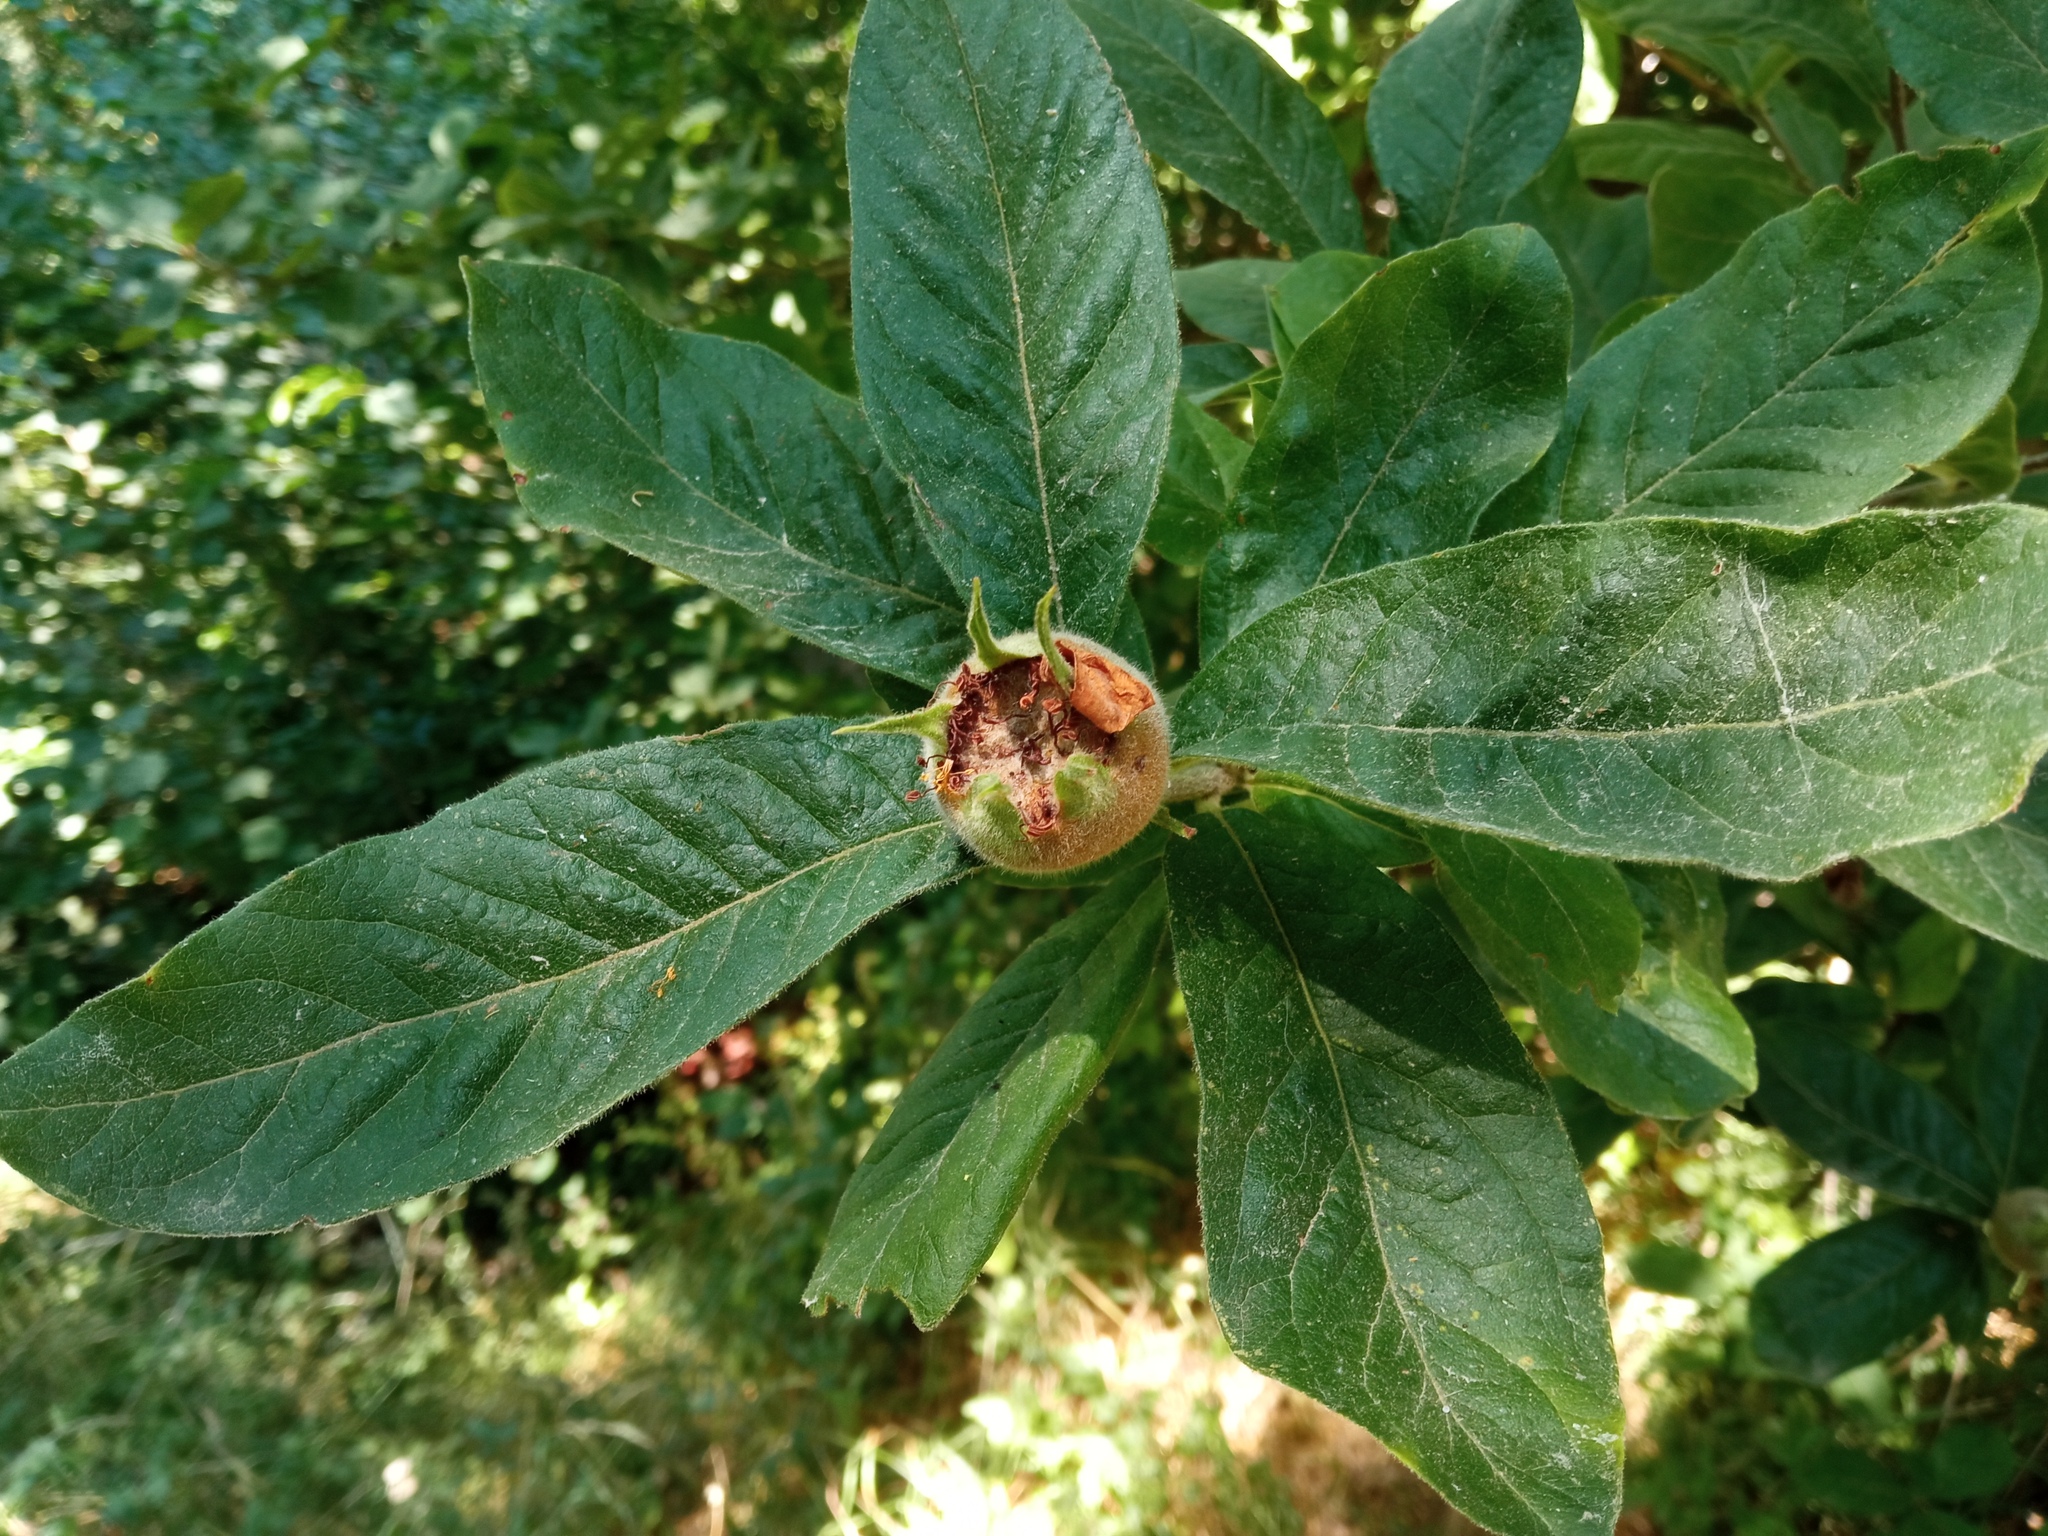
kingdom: Plantae
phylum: Tracheophyta
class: Magnoliopsida
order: Rosales
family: Rosaceae
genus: Mespilus
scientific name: Mespilus germanica
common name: Medlar
